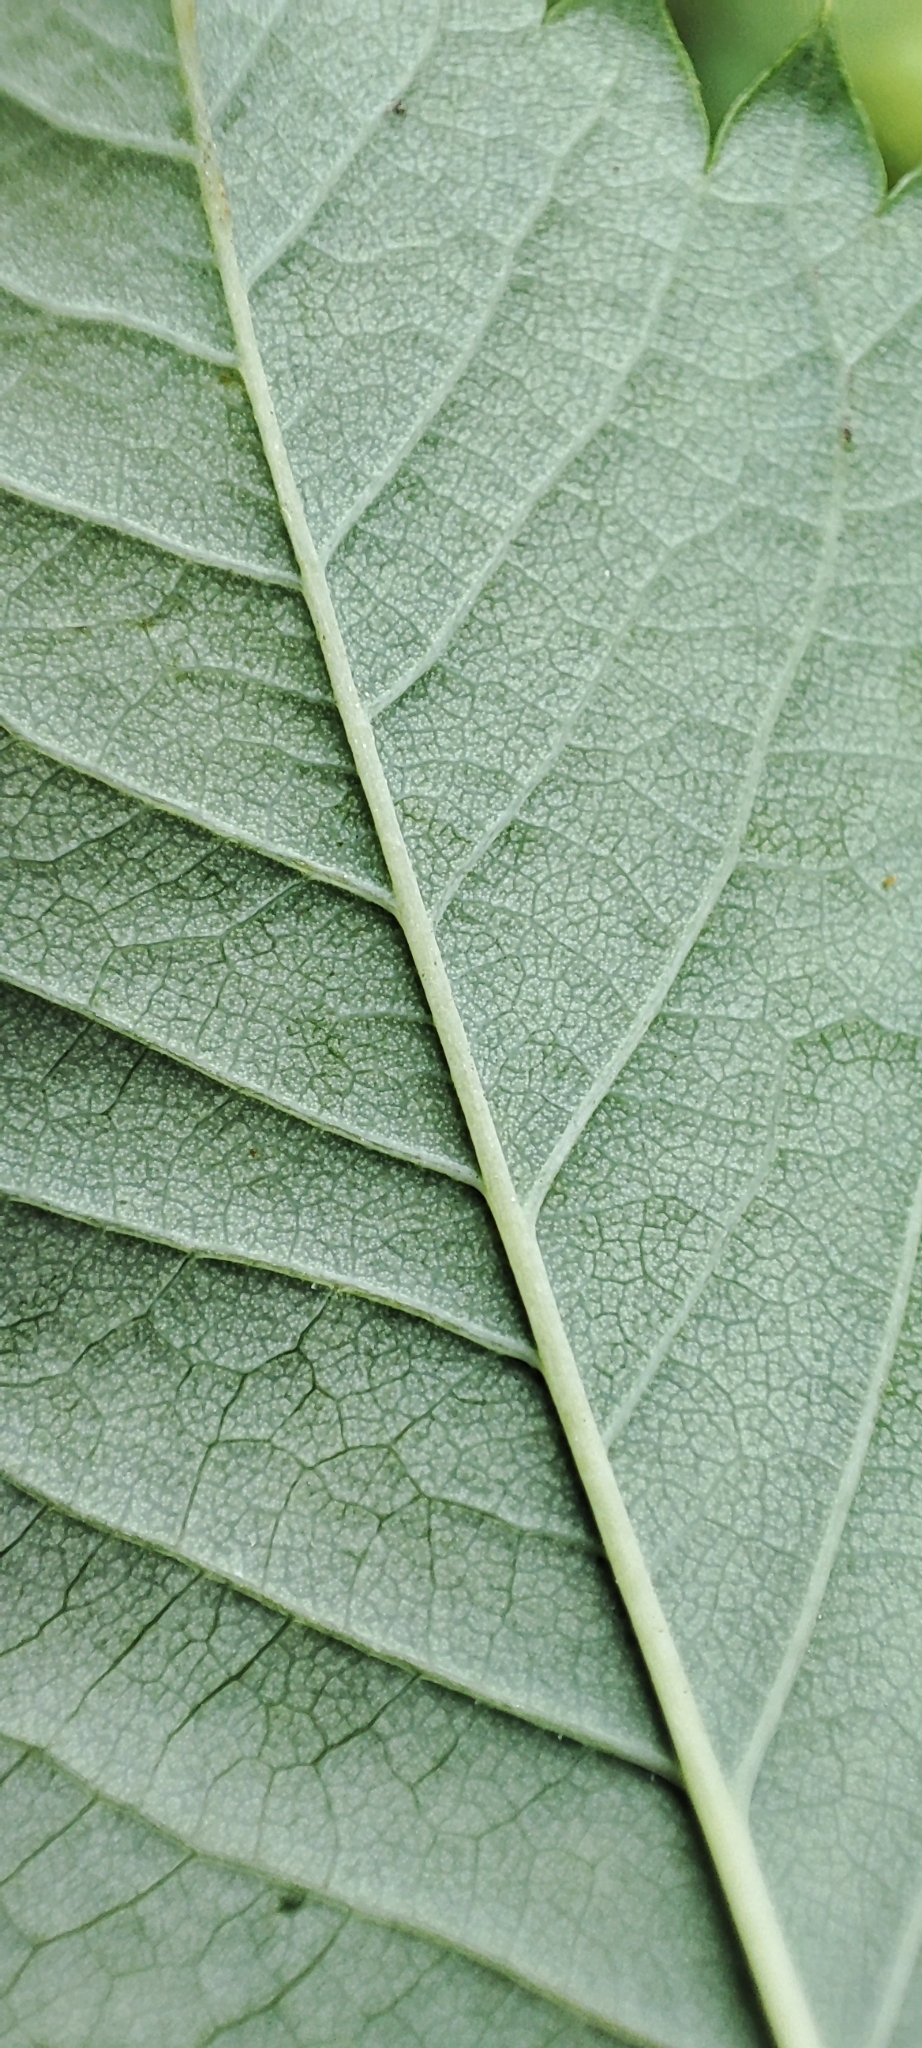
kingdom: Plantae
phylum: Tracheophyta
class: Magnoliopsida
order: Rosales
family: Rosaceae
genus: Rosa
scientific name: Rosa glabrifolia
